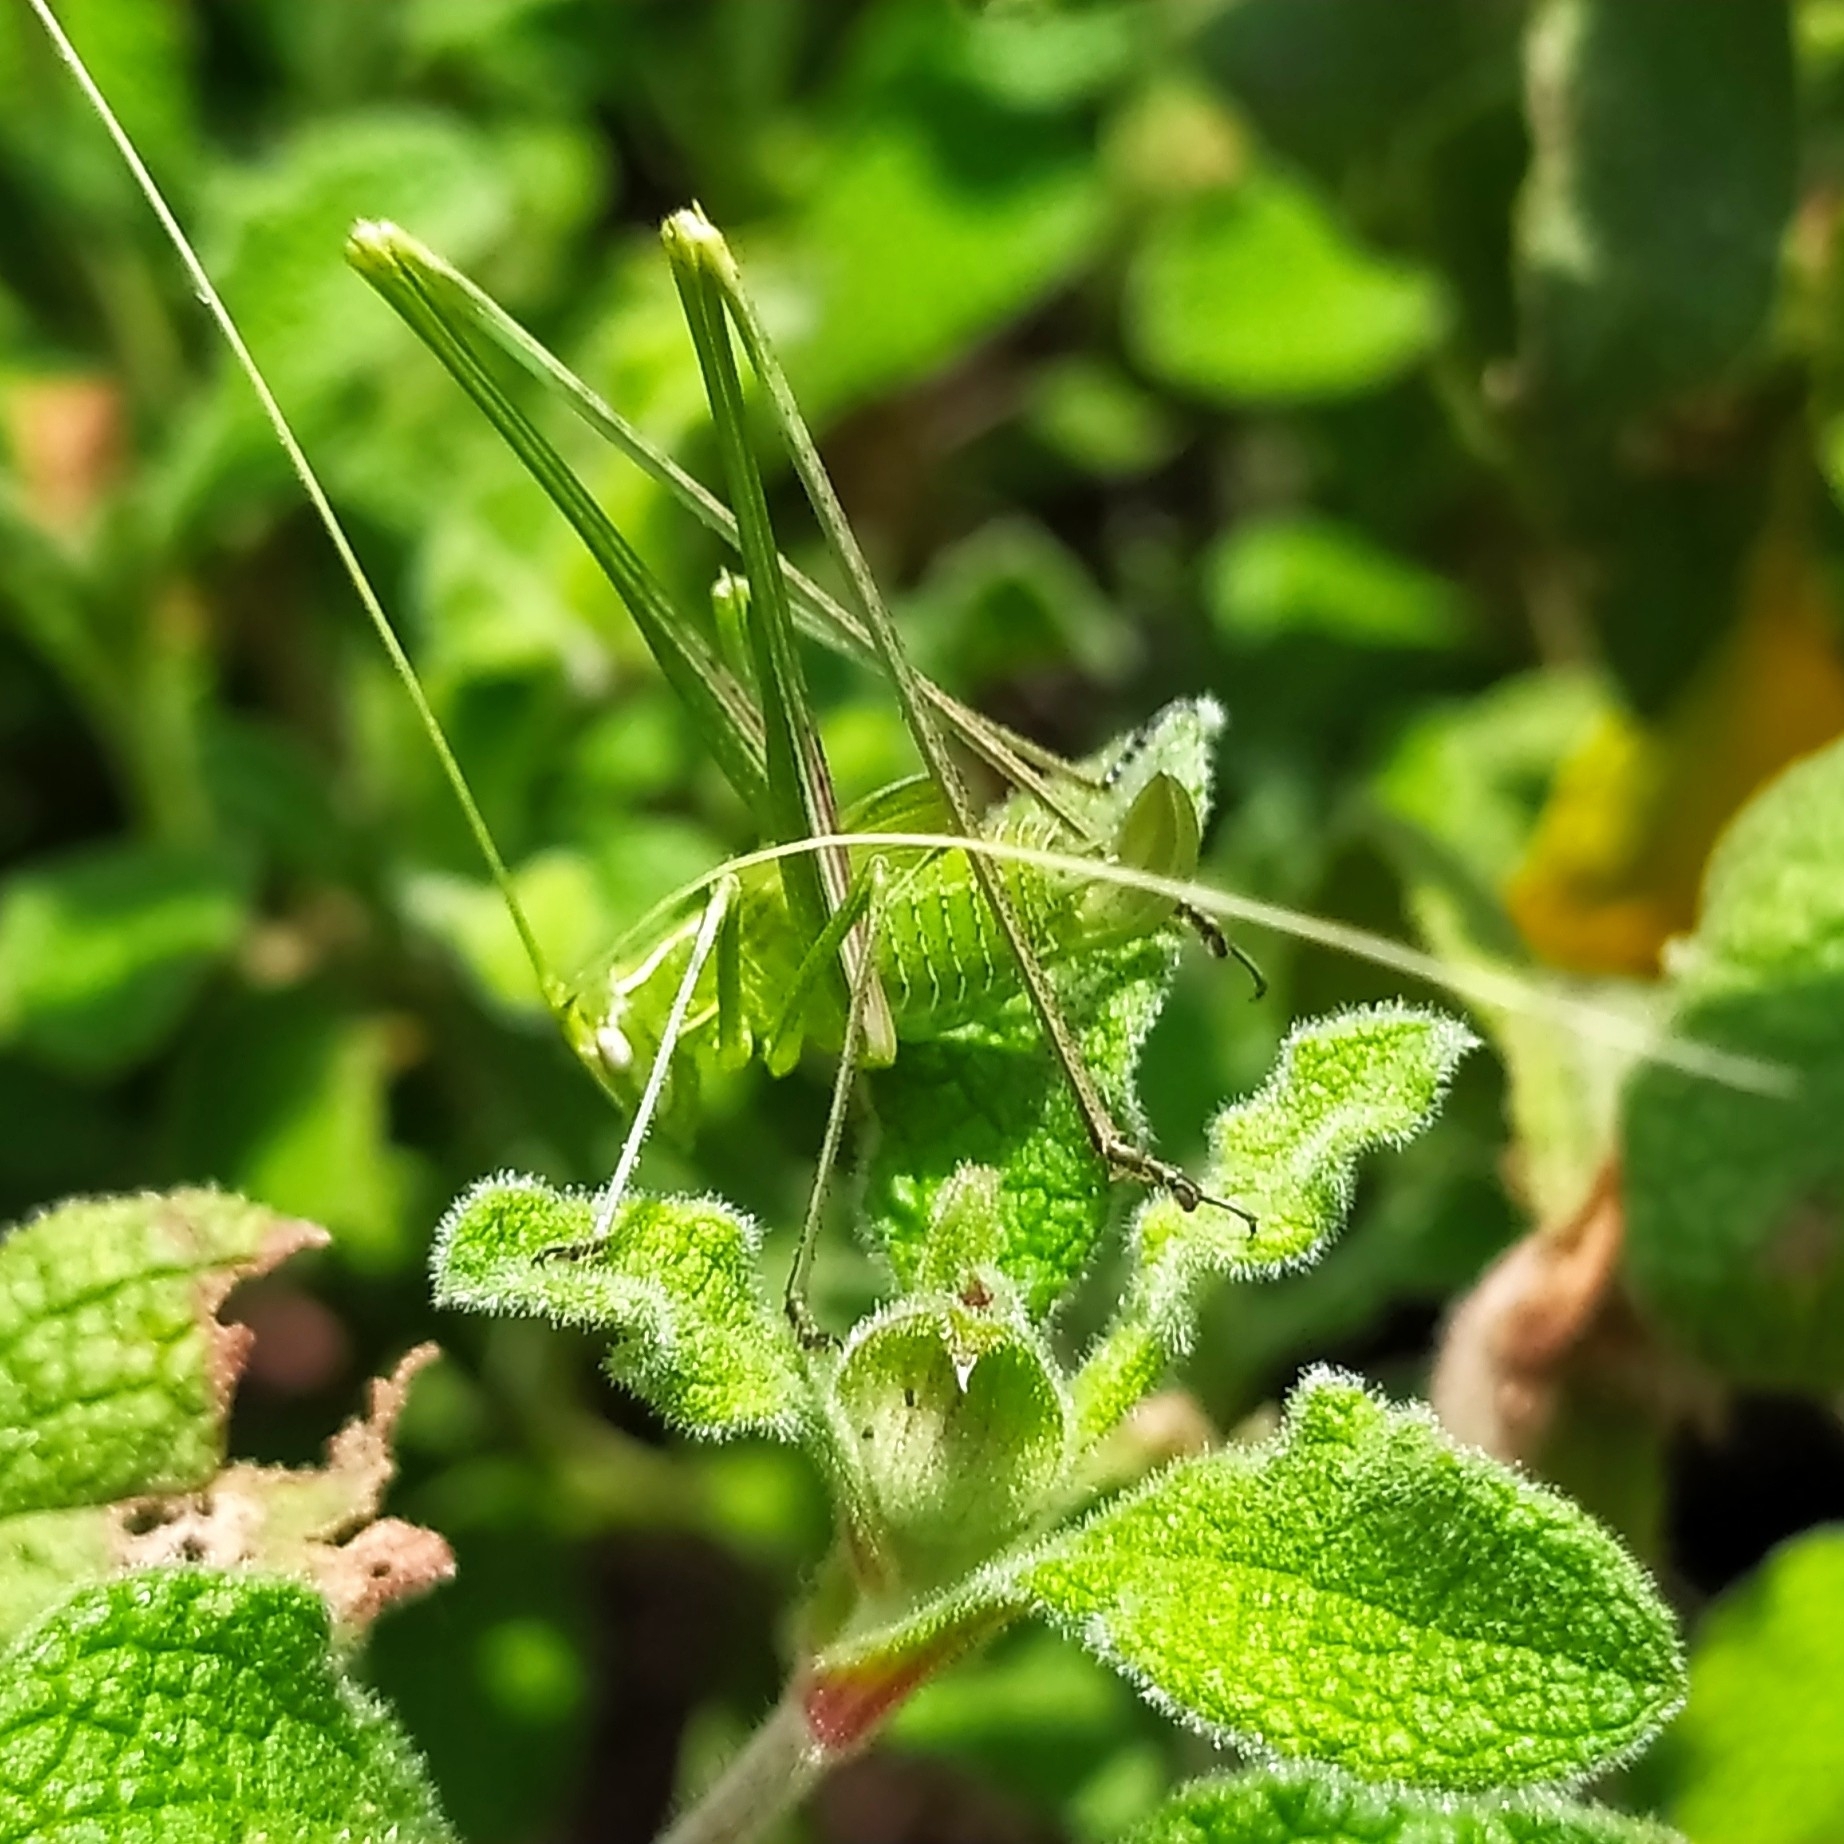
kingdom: Animalia
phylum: Arthropoda
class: Insecta
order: Orthoptera
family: Tettigoniidae
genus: Tylopsis
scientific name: Tylopsis lilifolia
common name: Lily bush-cricket
